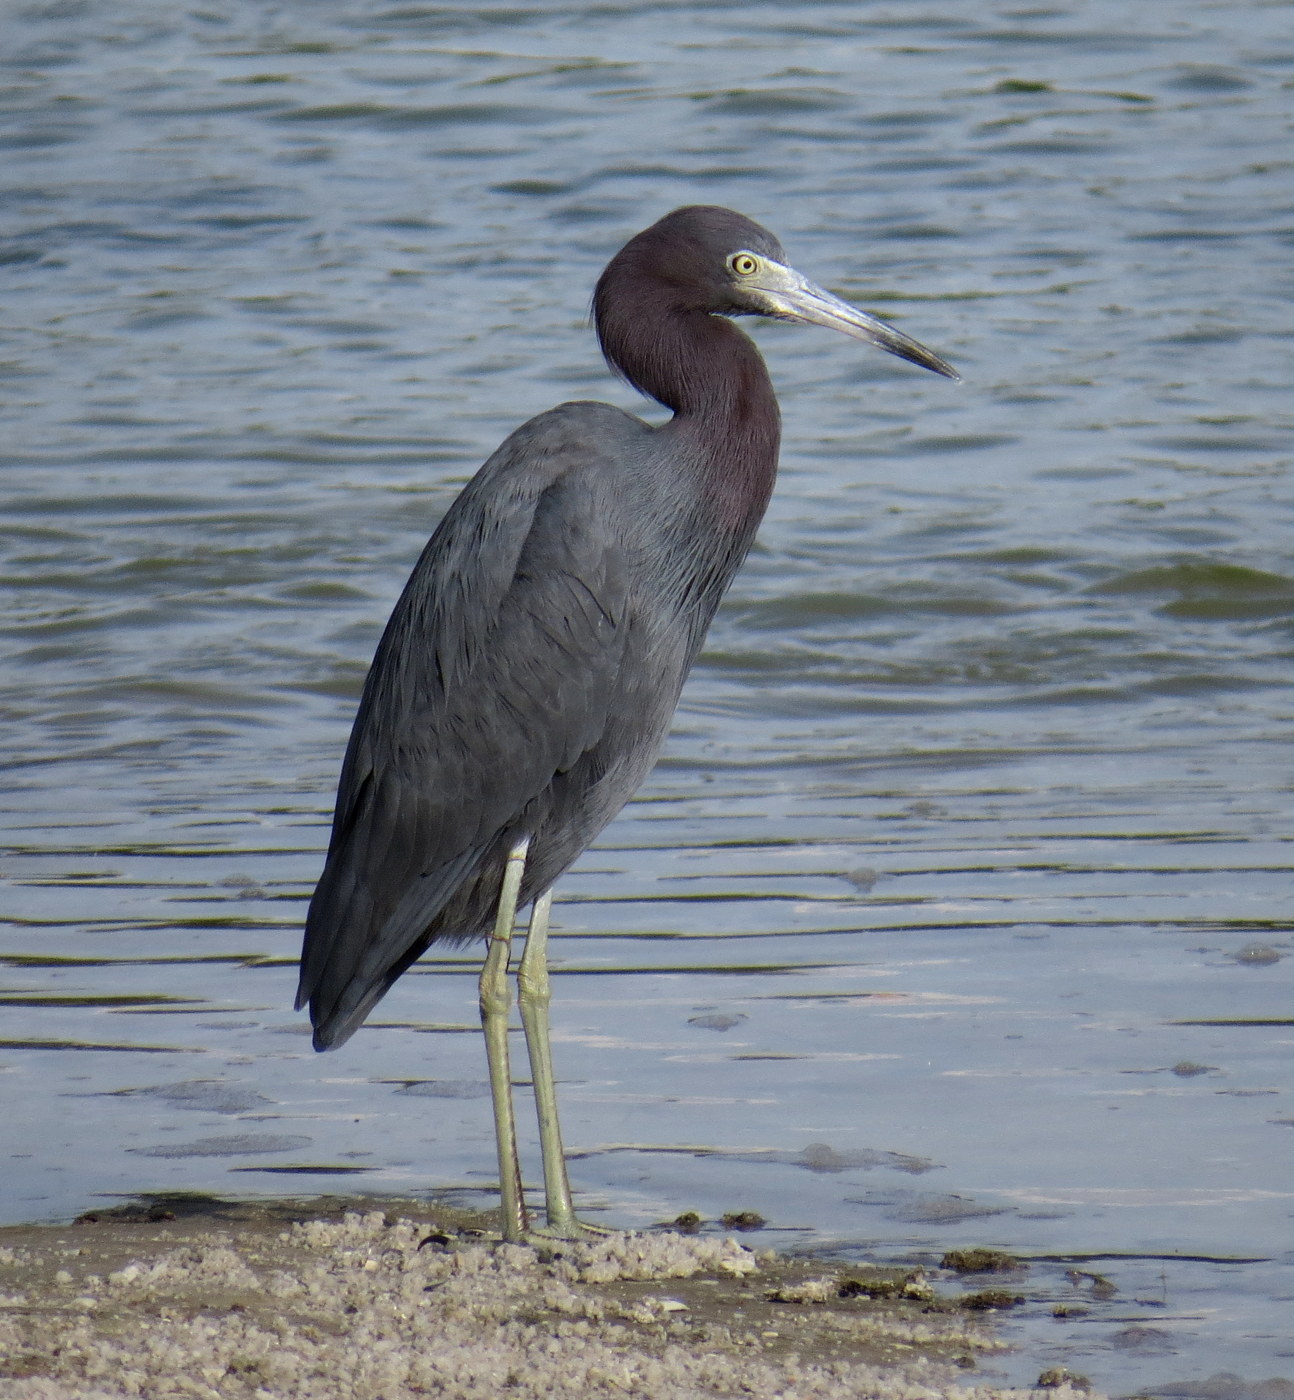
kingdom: Animalia
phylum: Chordata
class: Aves
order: Pelecaniformes
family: Ardeidae
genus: Egretta
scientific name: Egretta caerulea
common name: Little blue heron
